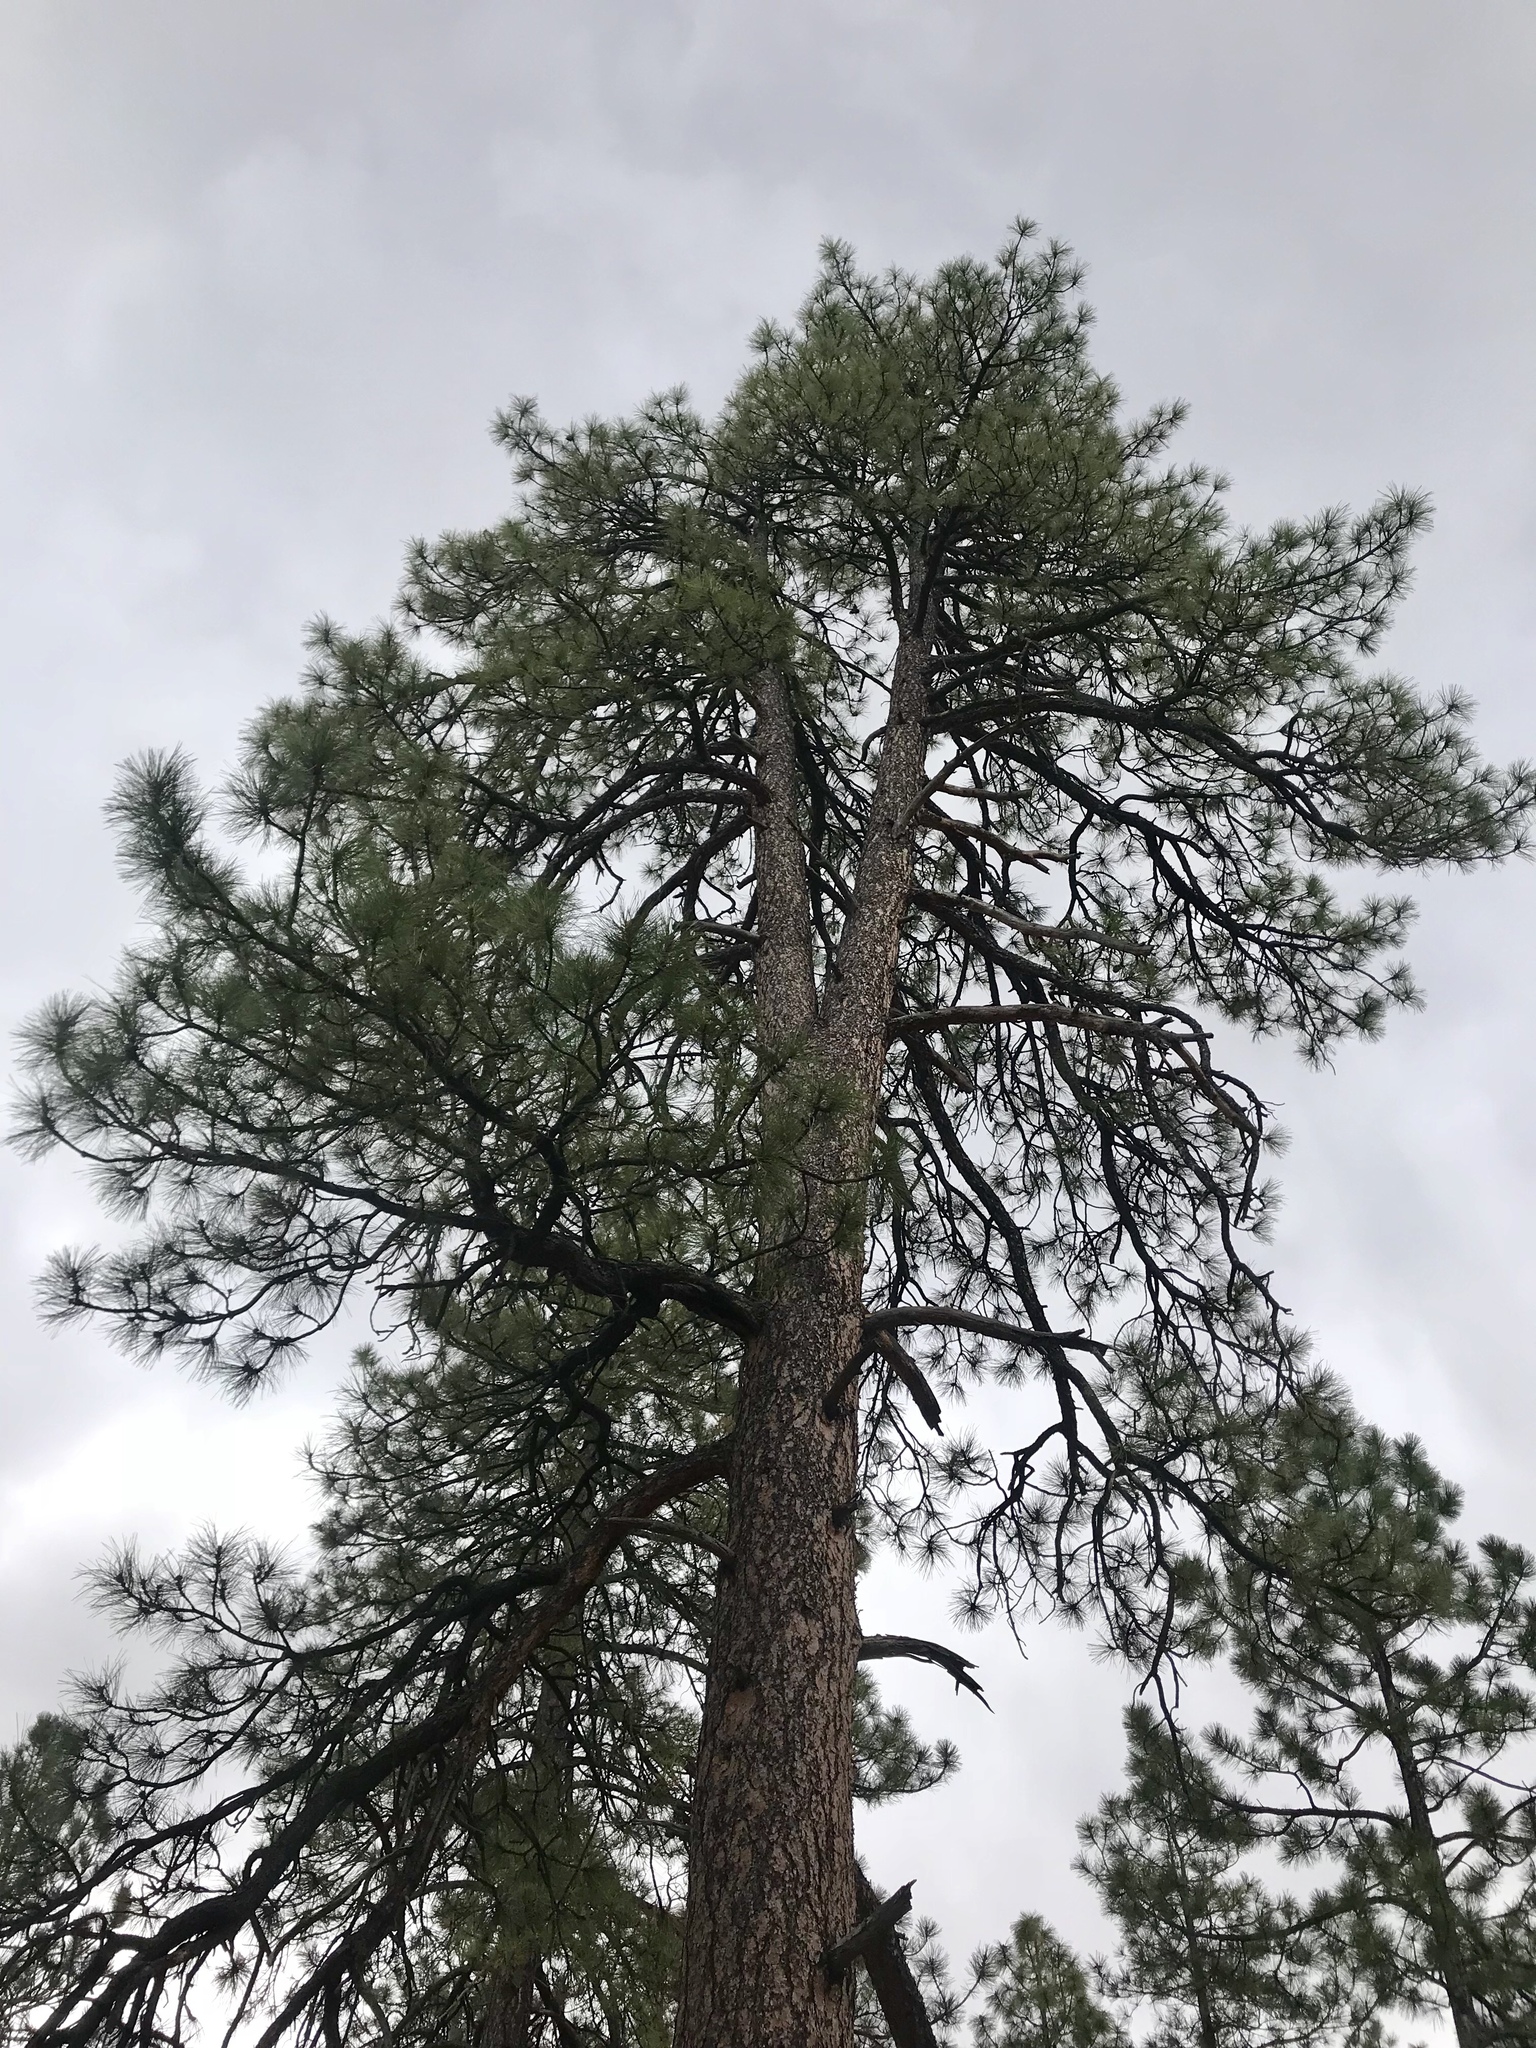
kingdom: Plantae
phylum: Tracheophyta
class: Pinopsida
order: Pinales
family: Pinaceae
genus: Pinus
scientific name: Pinus ponderosa
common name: Western yellow-pine
